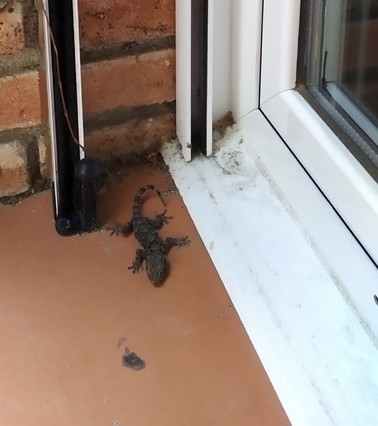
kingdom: Animalia
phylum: Chordata
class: Squamata
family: Phyllodactylidae
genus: Tarentola
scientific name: Tarentola mauritanica
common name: Moorish gecko
